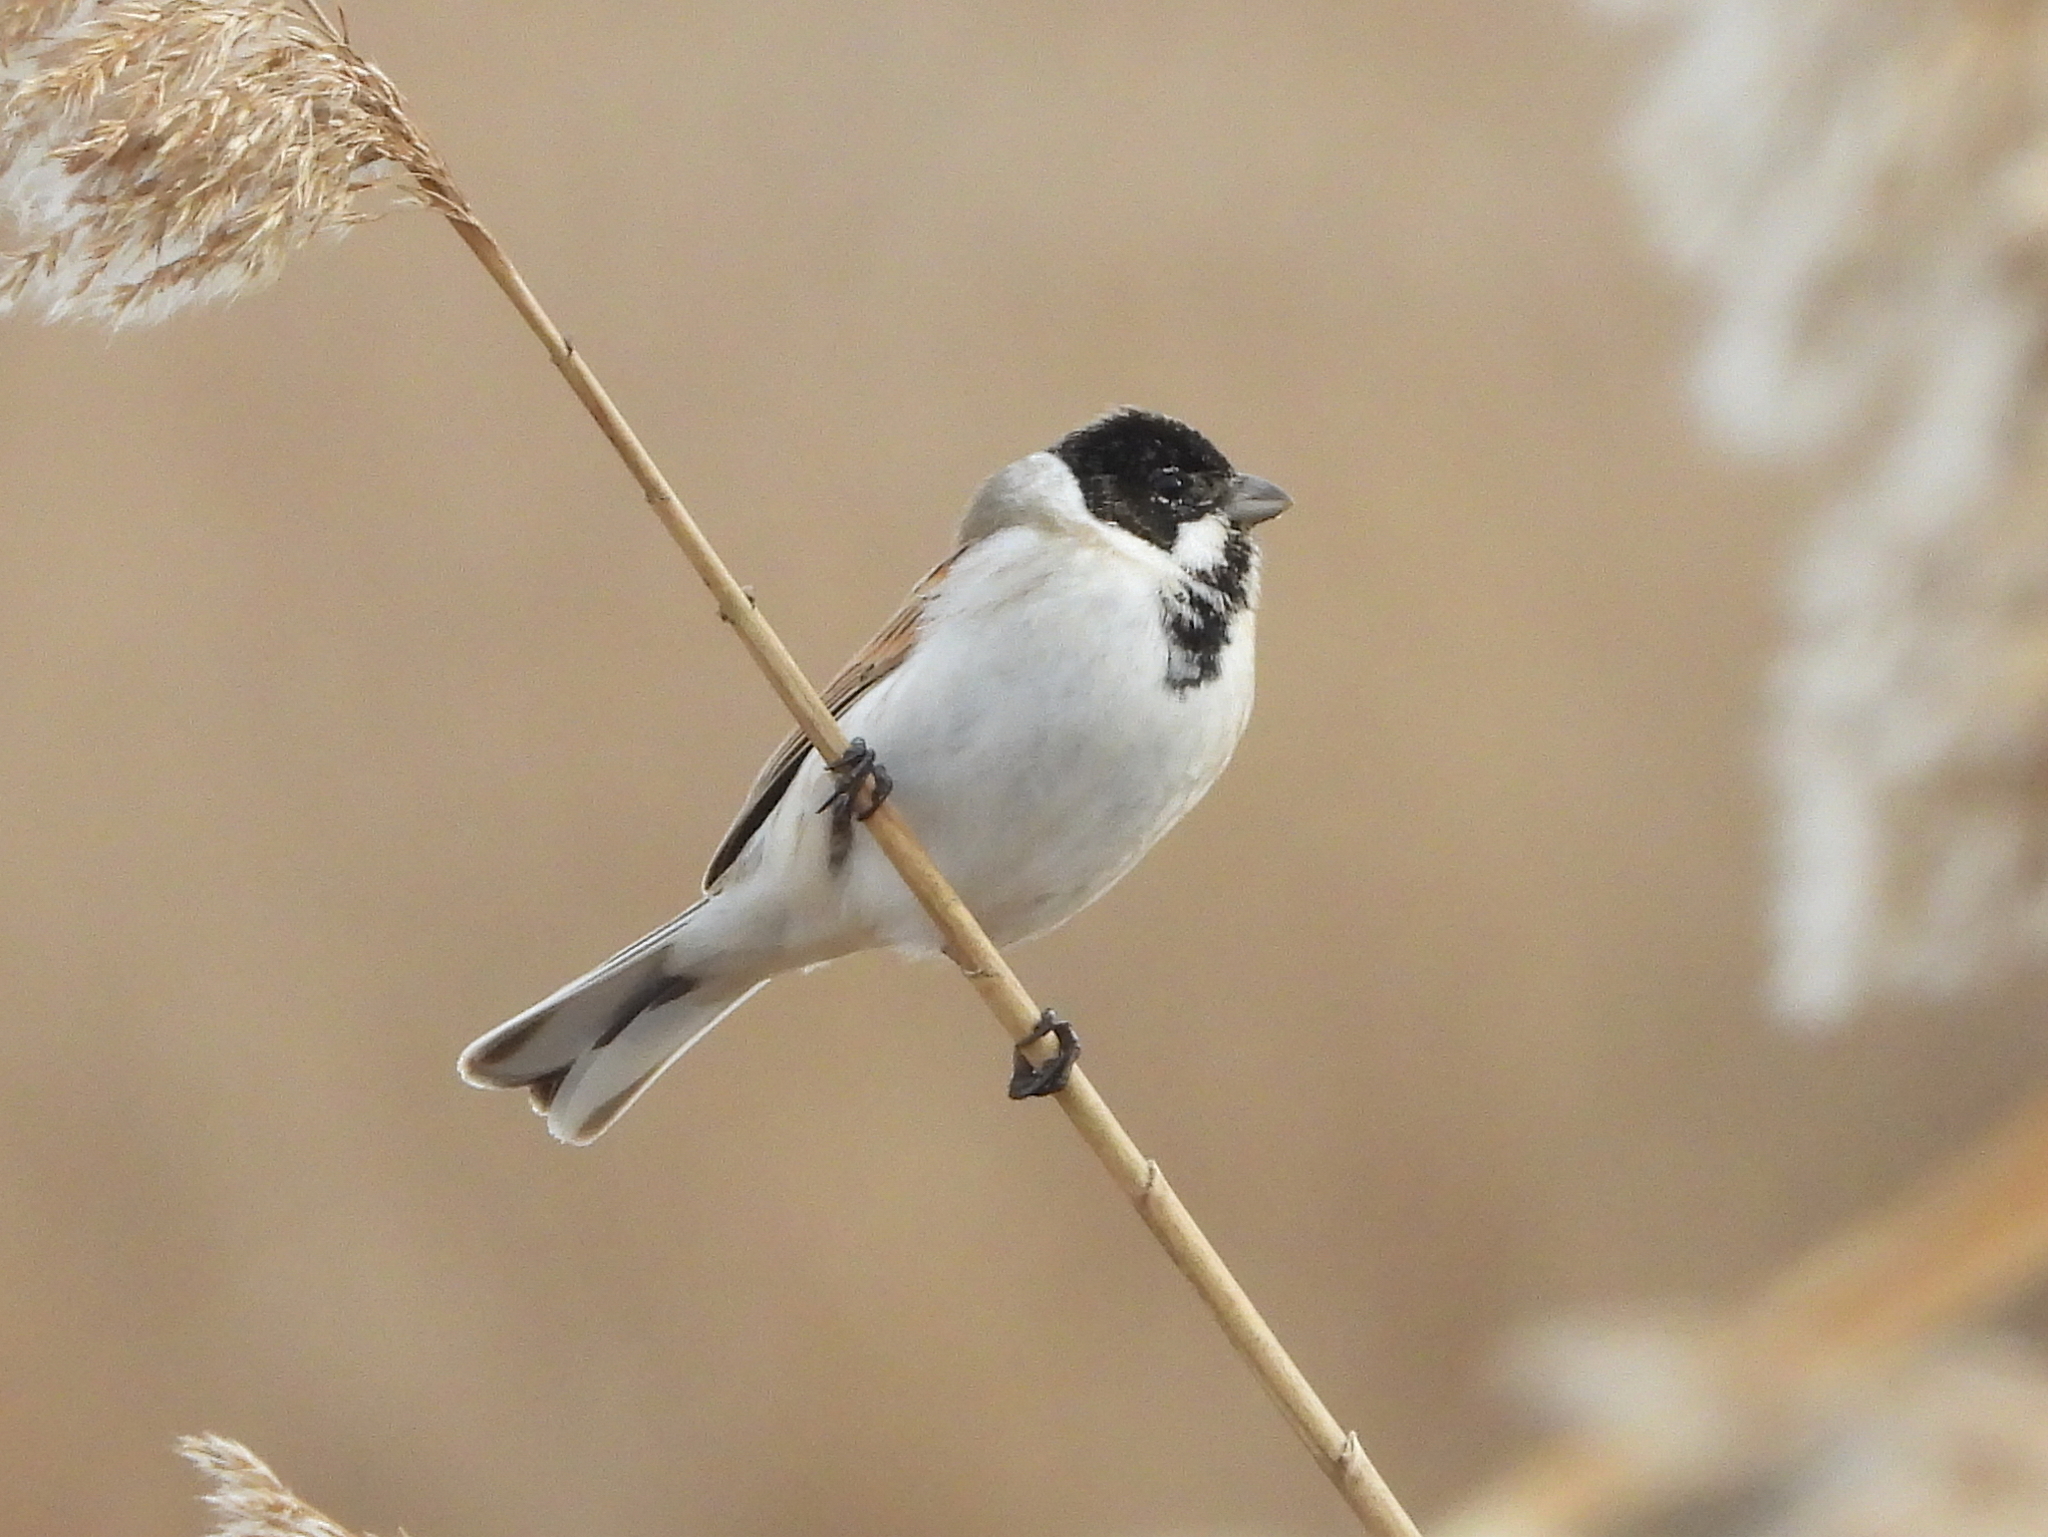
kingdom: Animalia
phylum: Chordata
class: Aves
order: Passeriformes
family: Emberizidae
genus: Emberiza
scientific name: Emberiza schoeniclus
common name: Reed bunting
